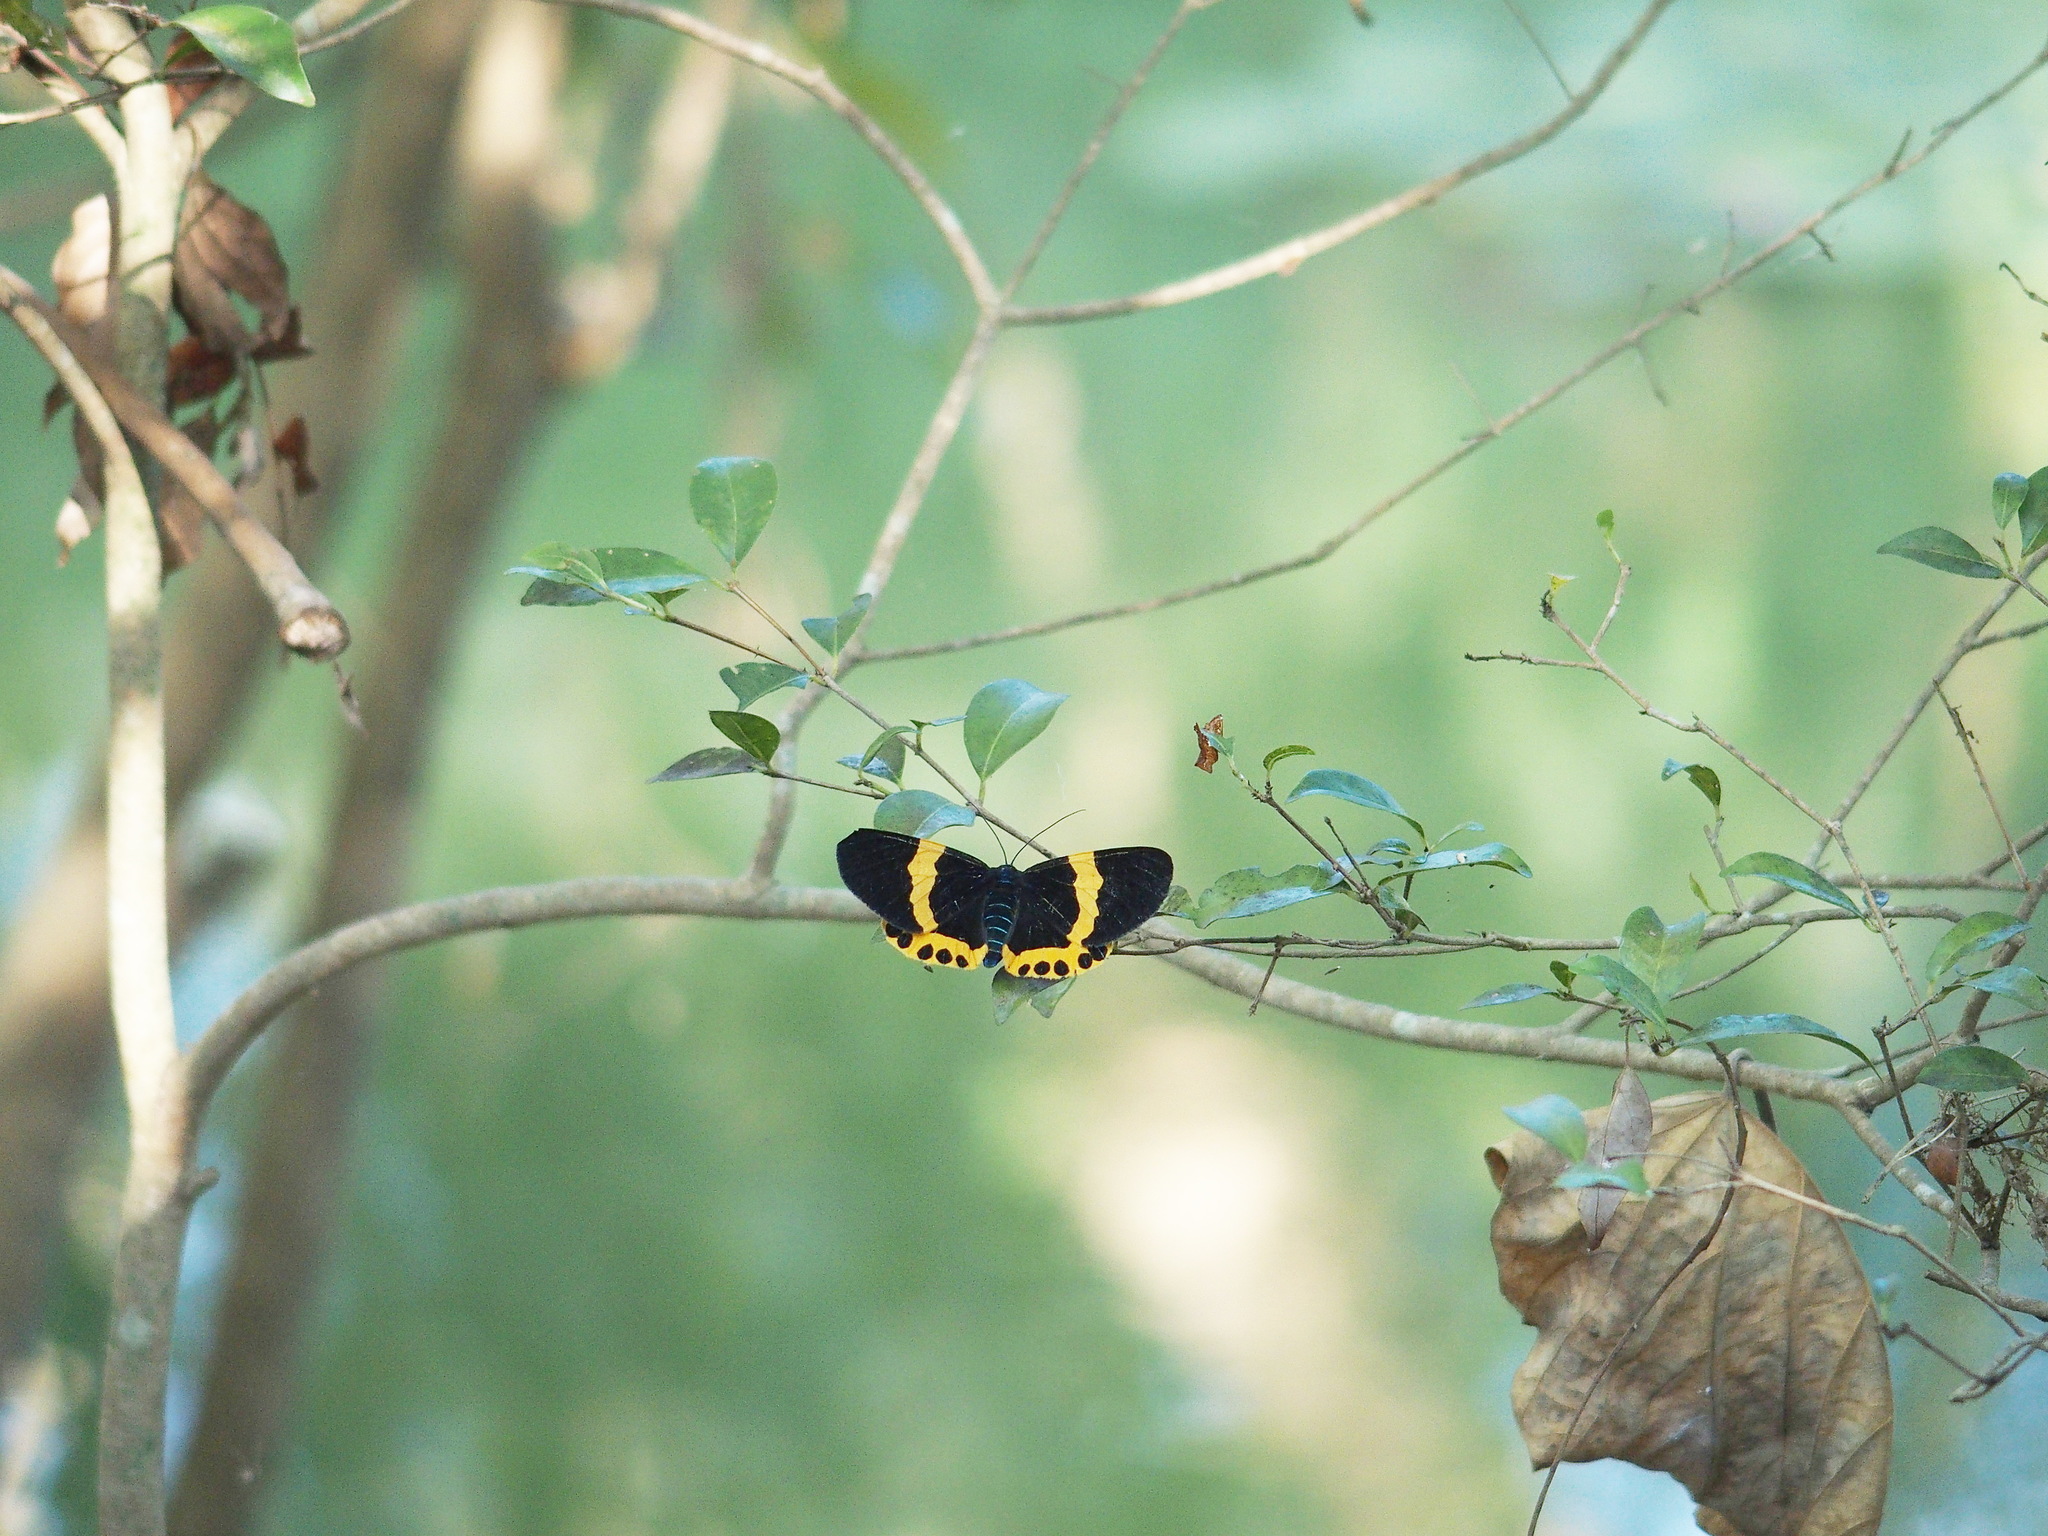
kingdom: Animalia
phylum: Arthropoda
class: Insecta
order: Lepidoptera
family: Geometridae
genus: Milionia
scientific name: Milionia basalis
